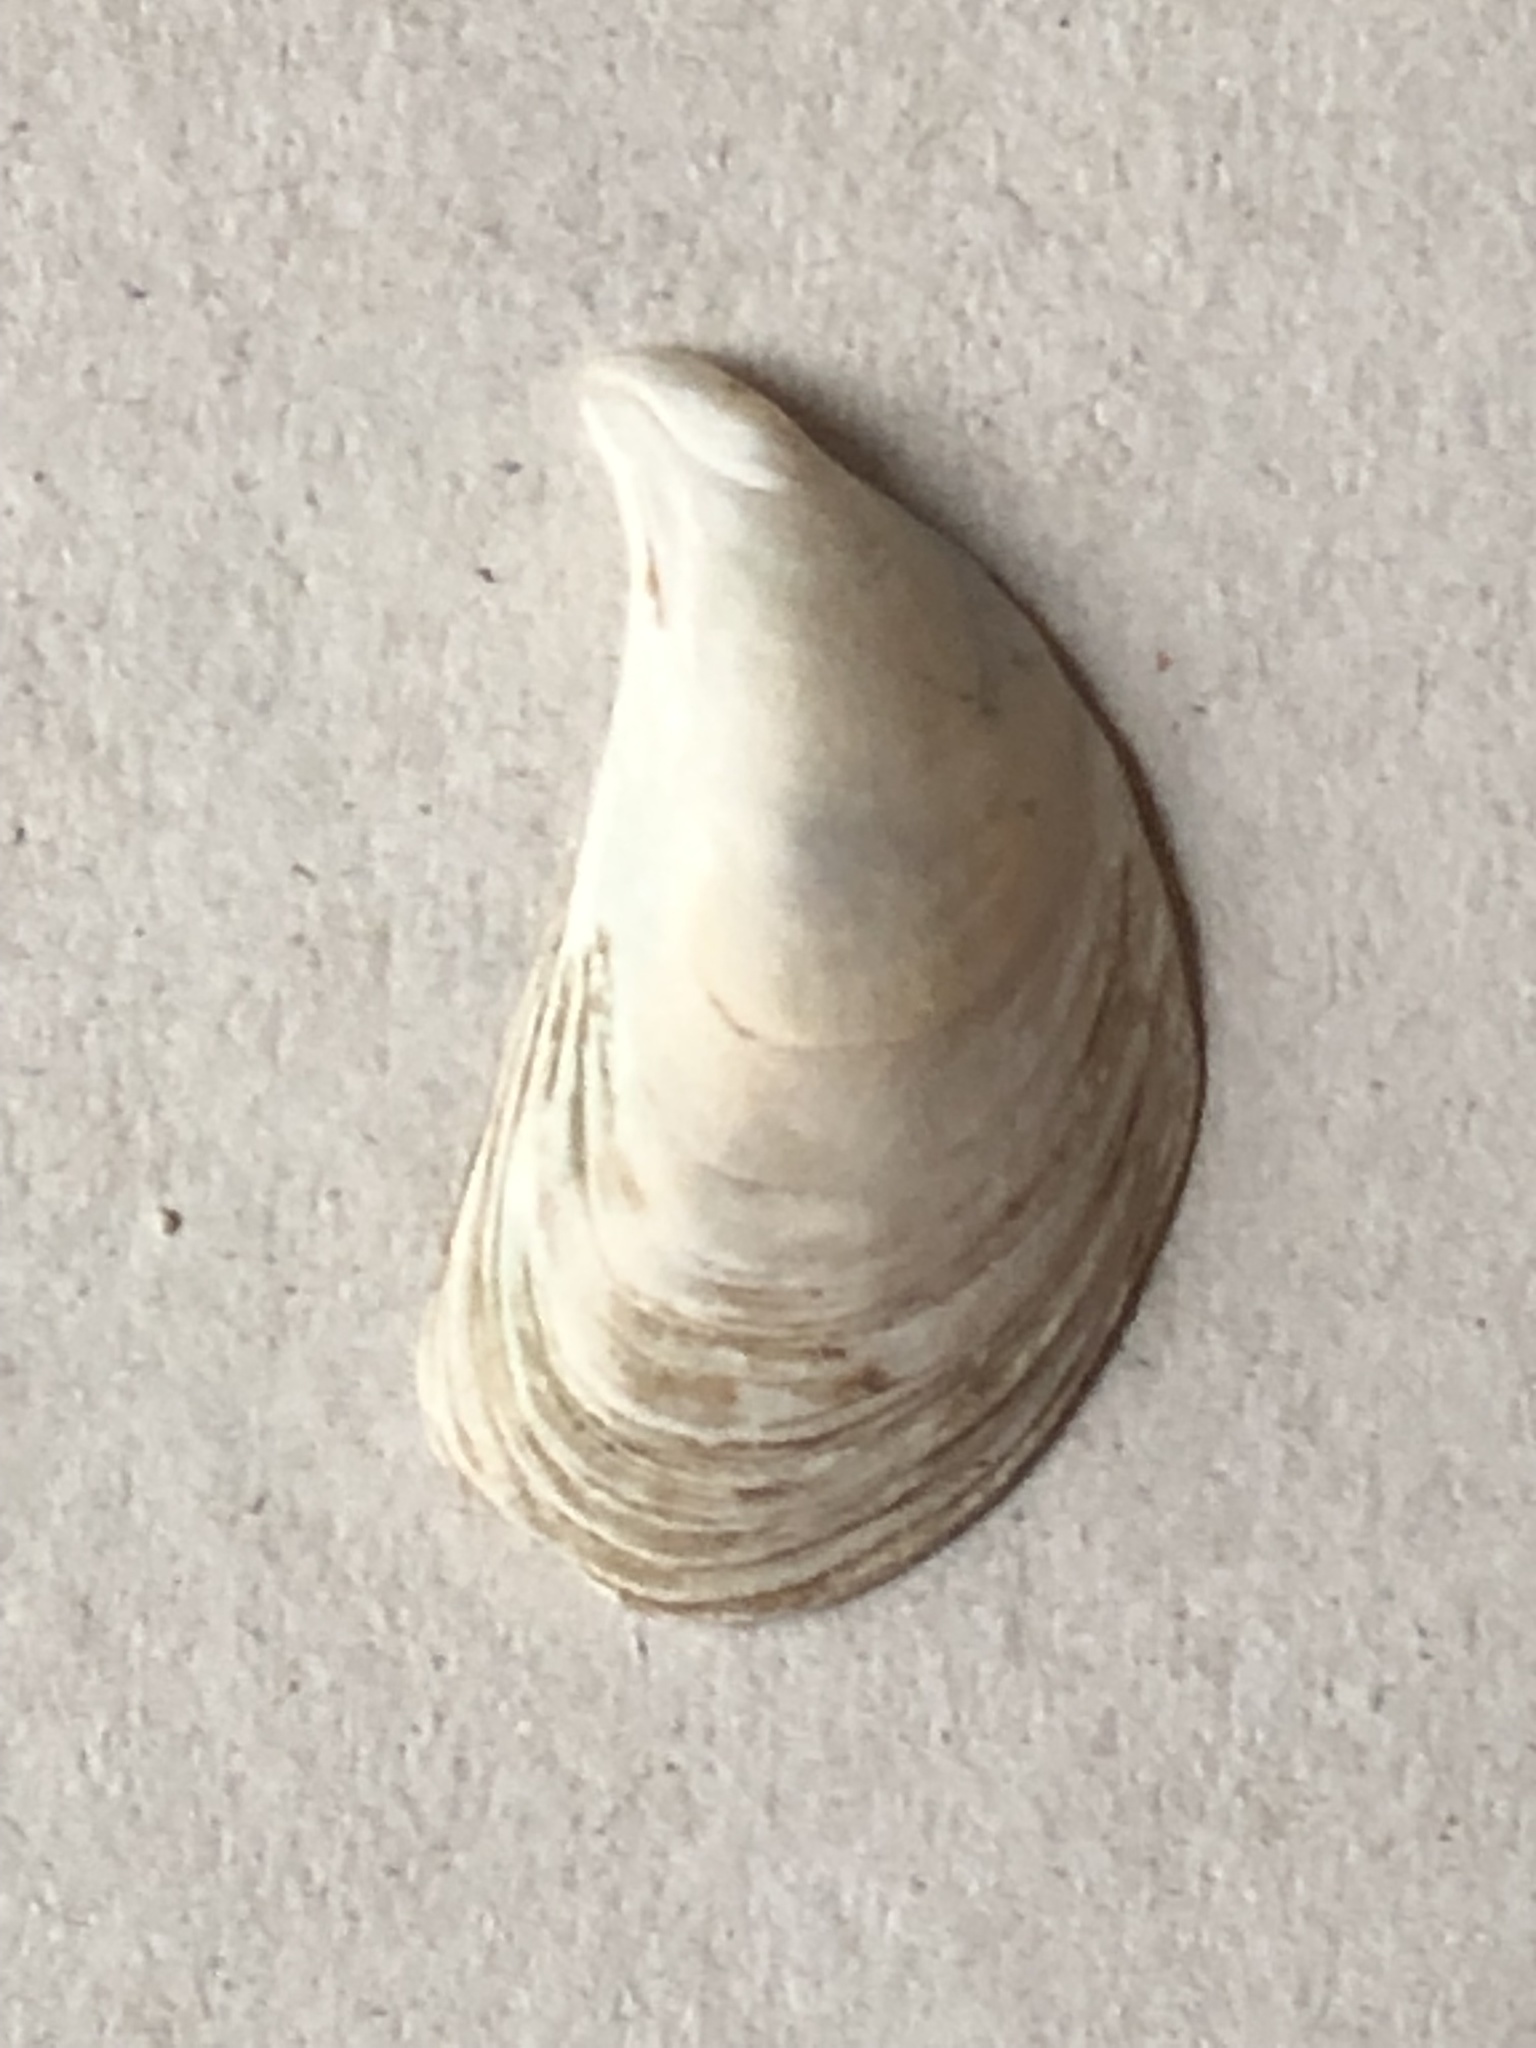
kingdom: Animalia
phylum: Mollusca
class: Bivalvia
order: Myida
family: Dreissenidae
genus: Dreissena
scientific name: Dreissena bugensis
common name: Quagga mussel
